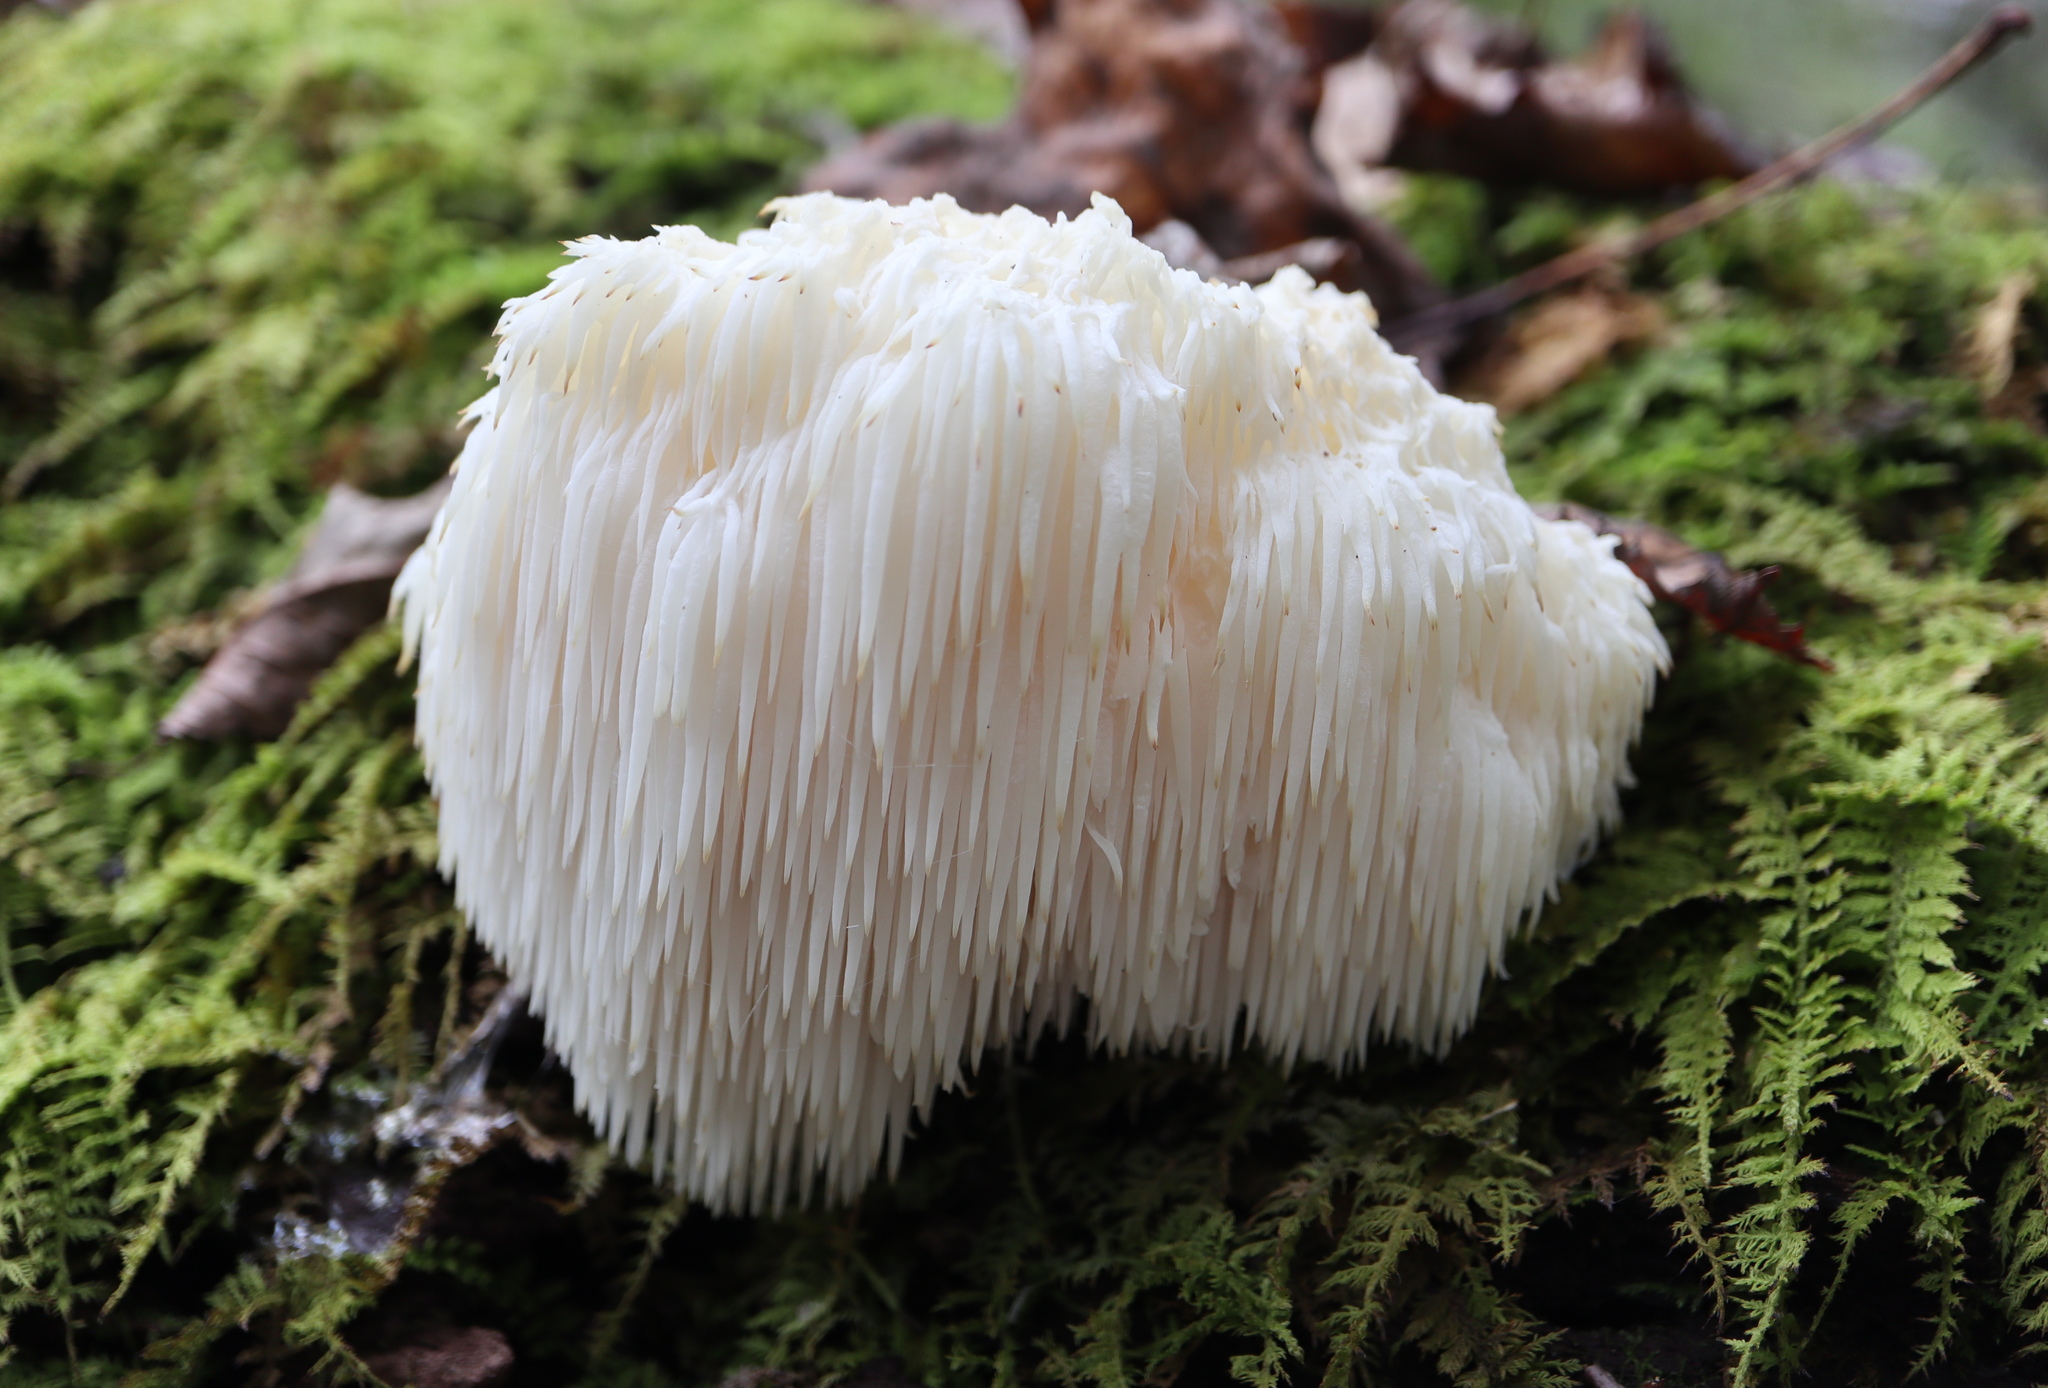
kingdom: Fungi
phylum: Basidiomycota
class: Agaricomycetes
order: Russulales
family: Hericiaceae
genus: Hericium
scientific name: Hericium erinaceus
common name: Bearded tooth
